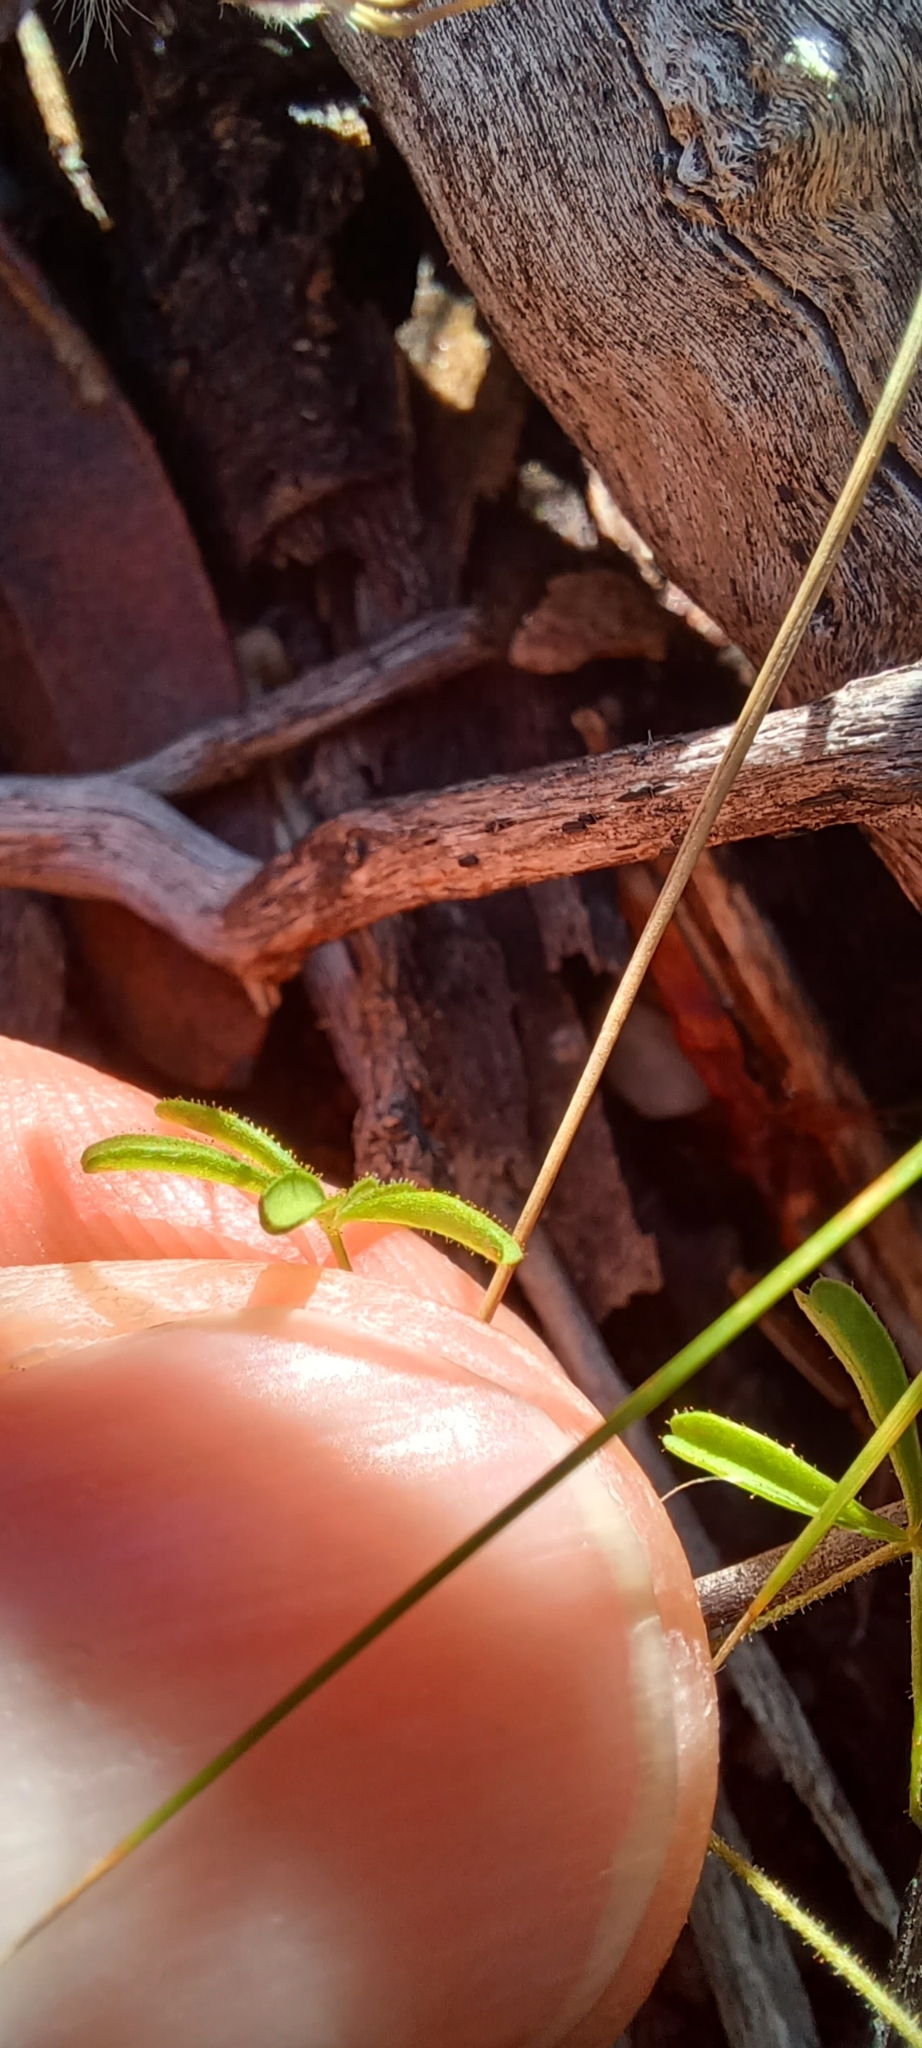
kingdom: Plantae
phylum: Tracheophyta
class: Magnoliopsida
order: Oxalidales
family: Oxalidaceae
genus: Oxalis
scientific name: Oxalis engleriana
